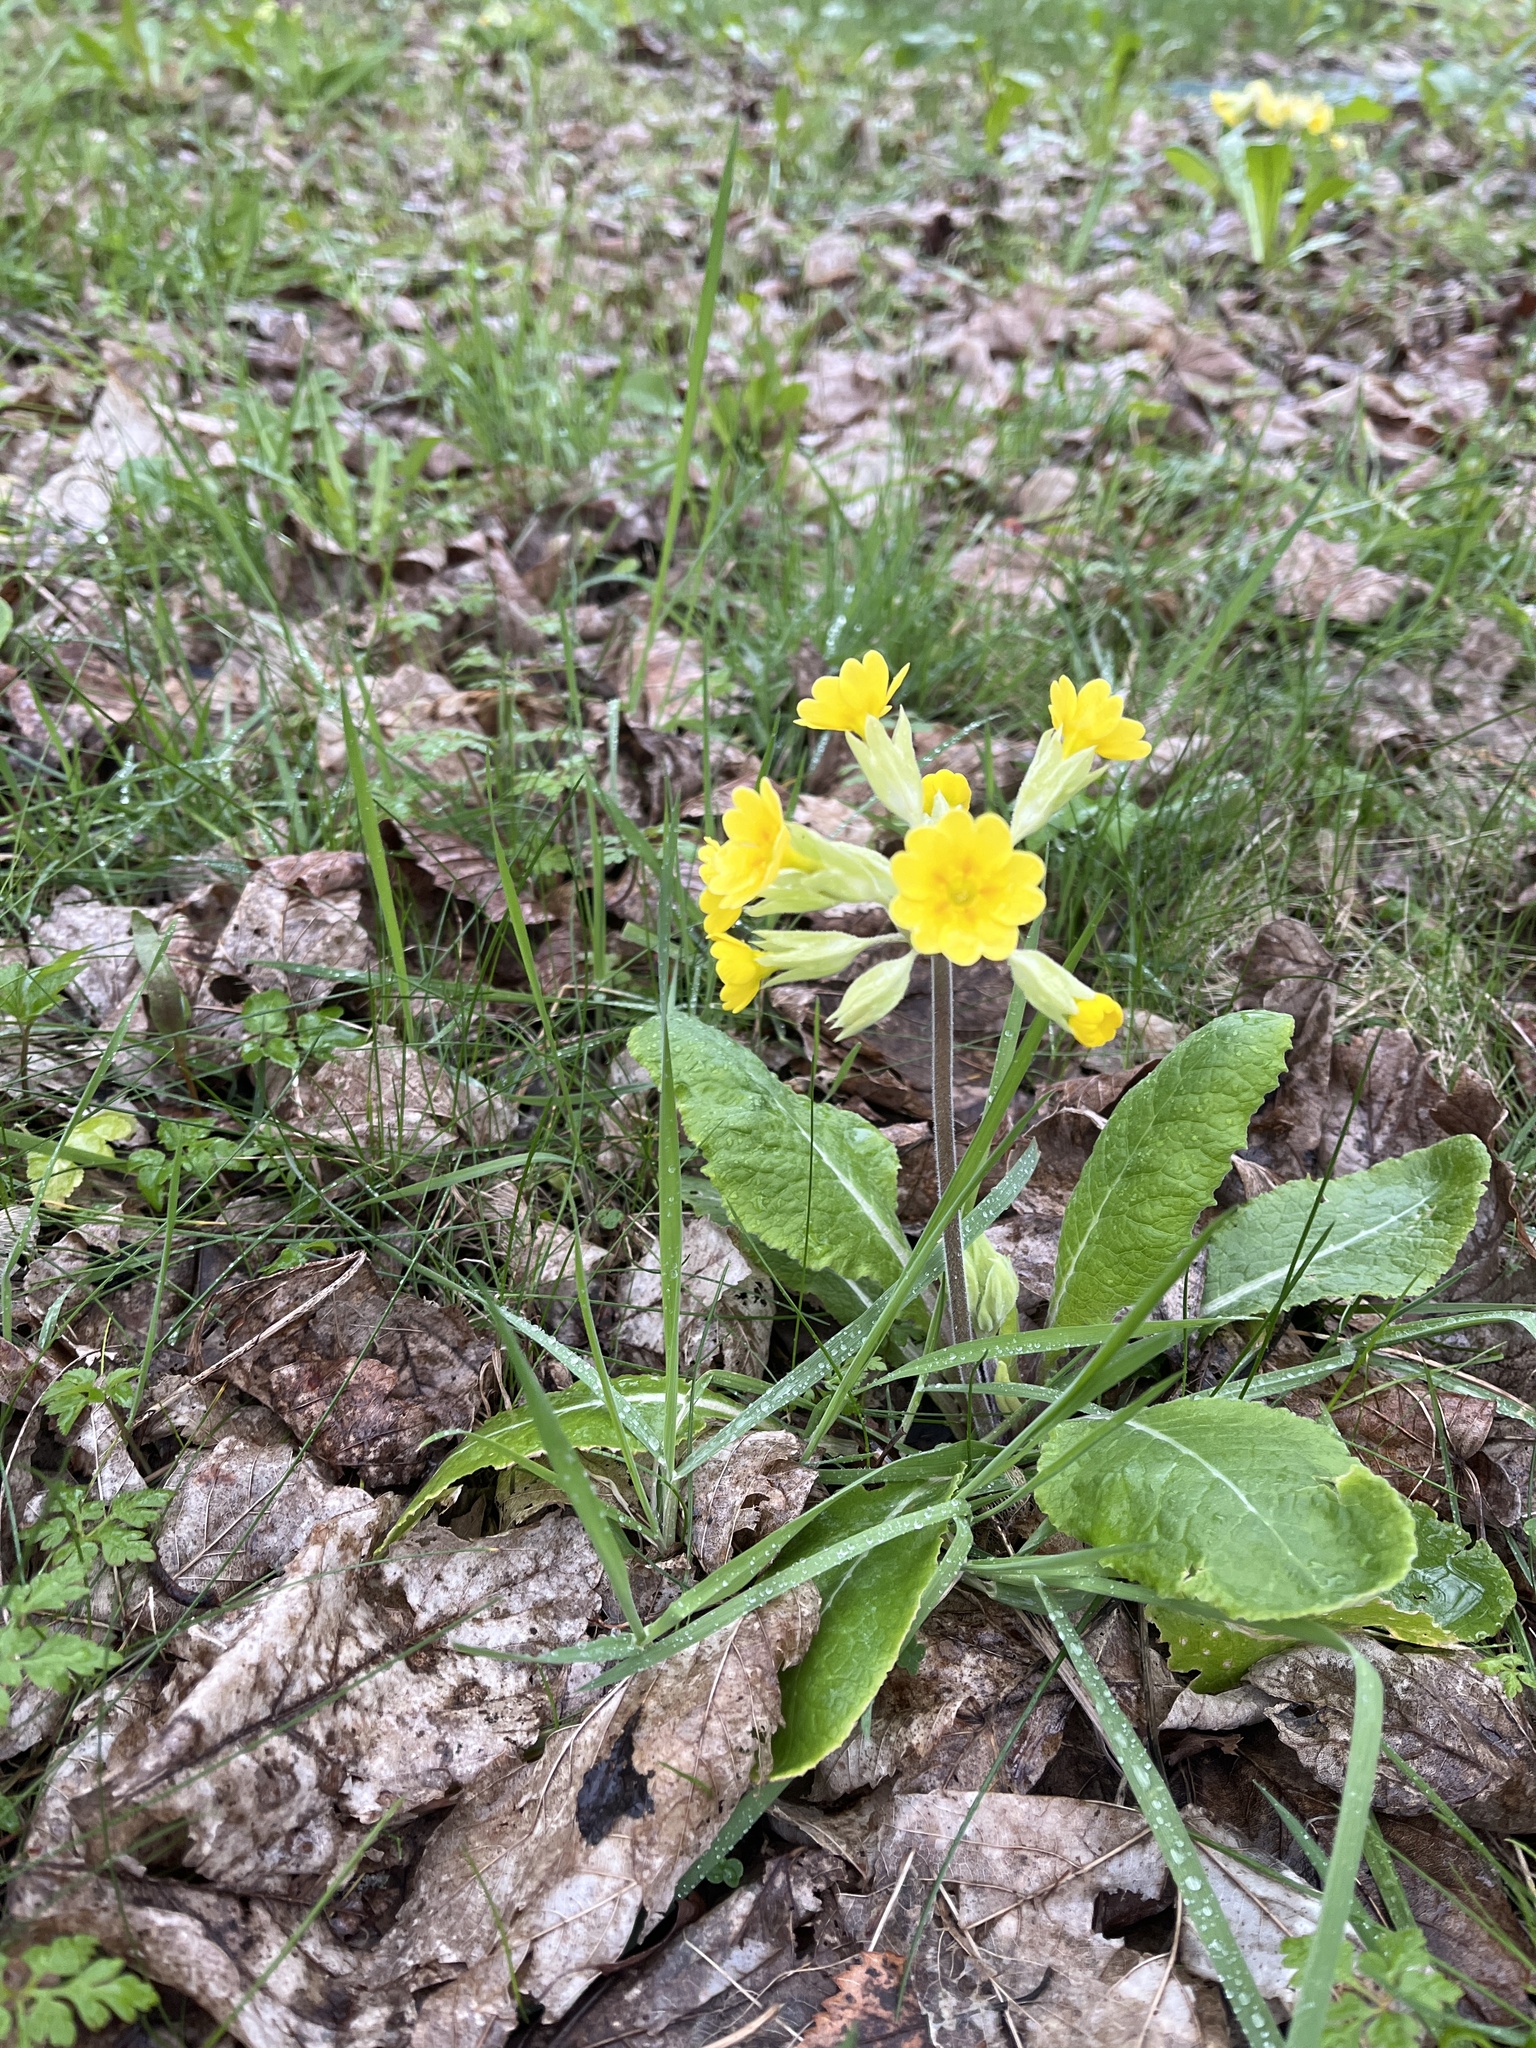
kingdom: Plantae
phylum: Tracheophyta
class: Magnoliopsida
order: Ericales
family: Primulaceae
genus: Primula
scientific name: Primula veris
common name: Cowslip
